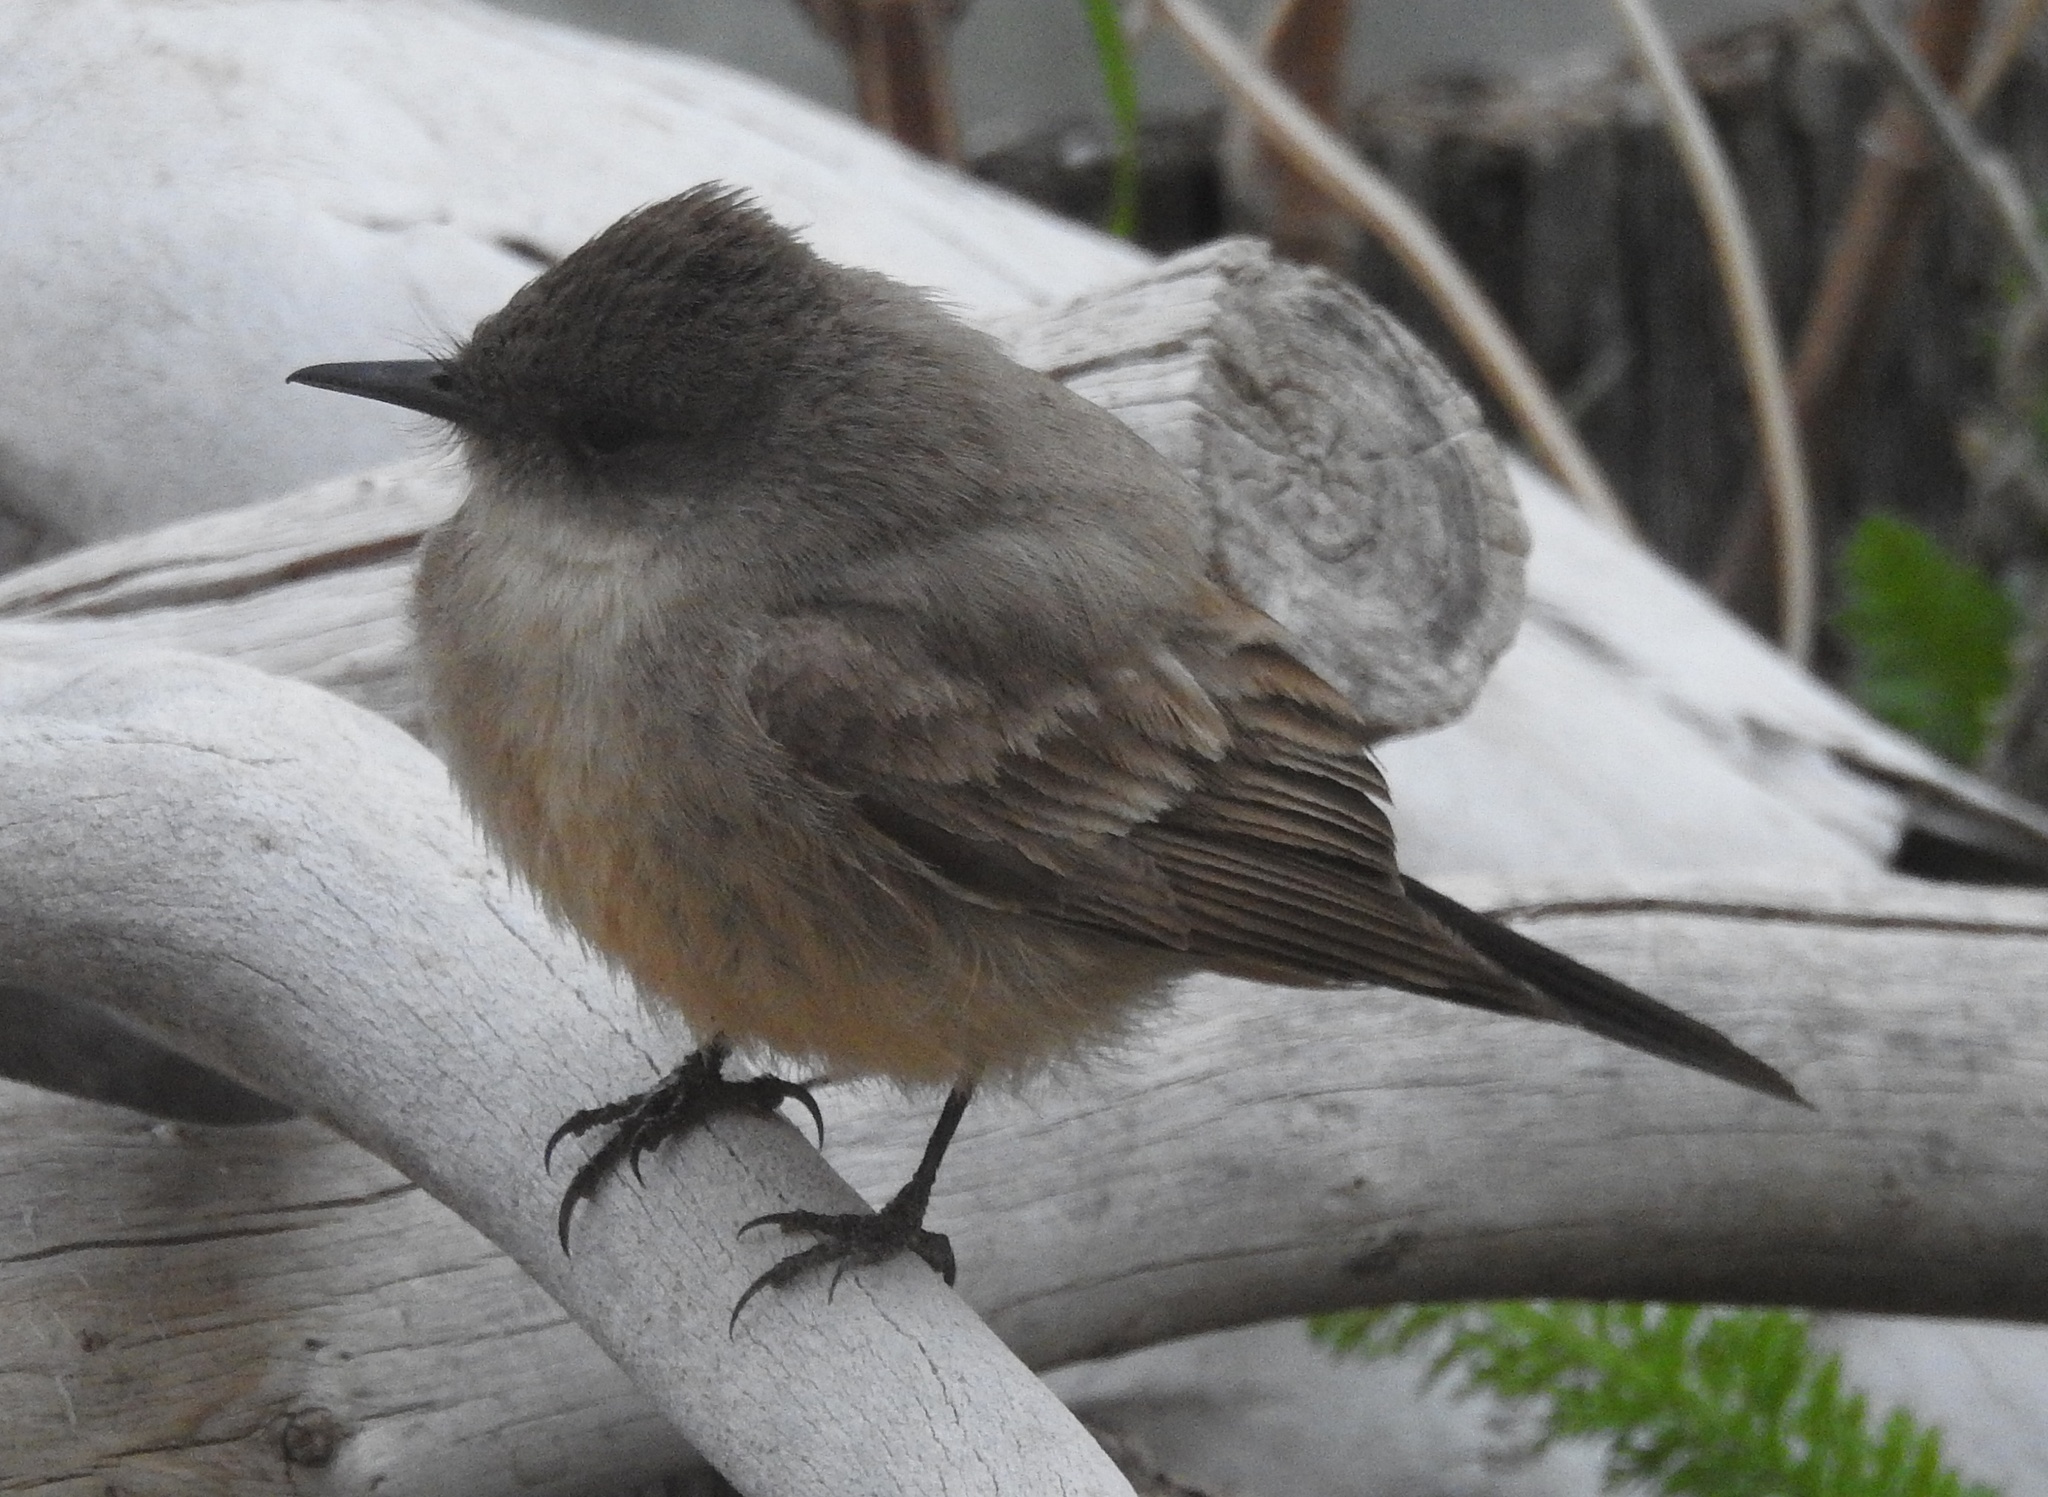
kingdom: Animalia
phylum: Chordata
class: Aves
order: Passeriformes
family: Tyrannidae
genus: Sayornis
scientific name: Sayornis saya
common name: Say's phoebe
